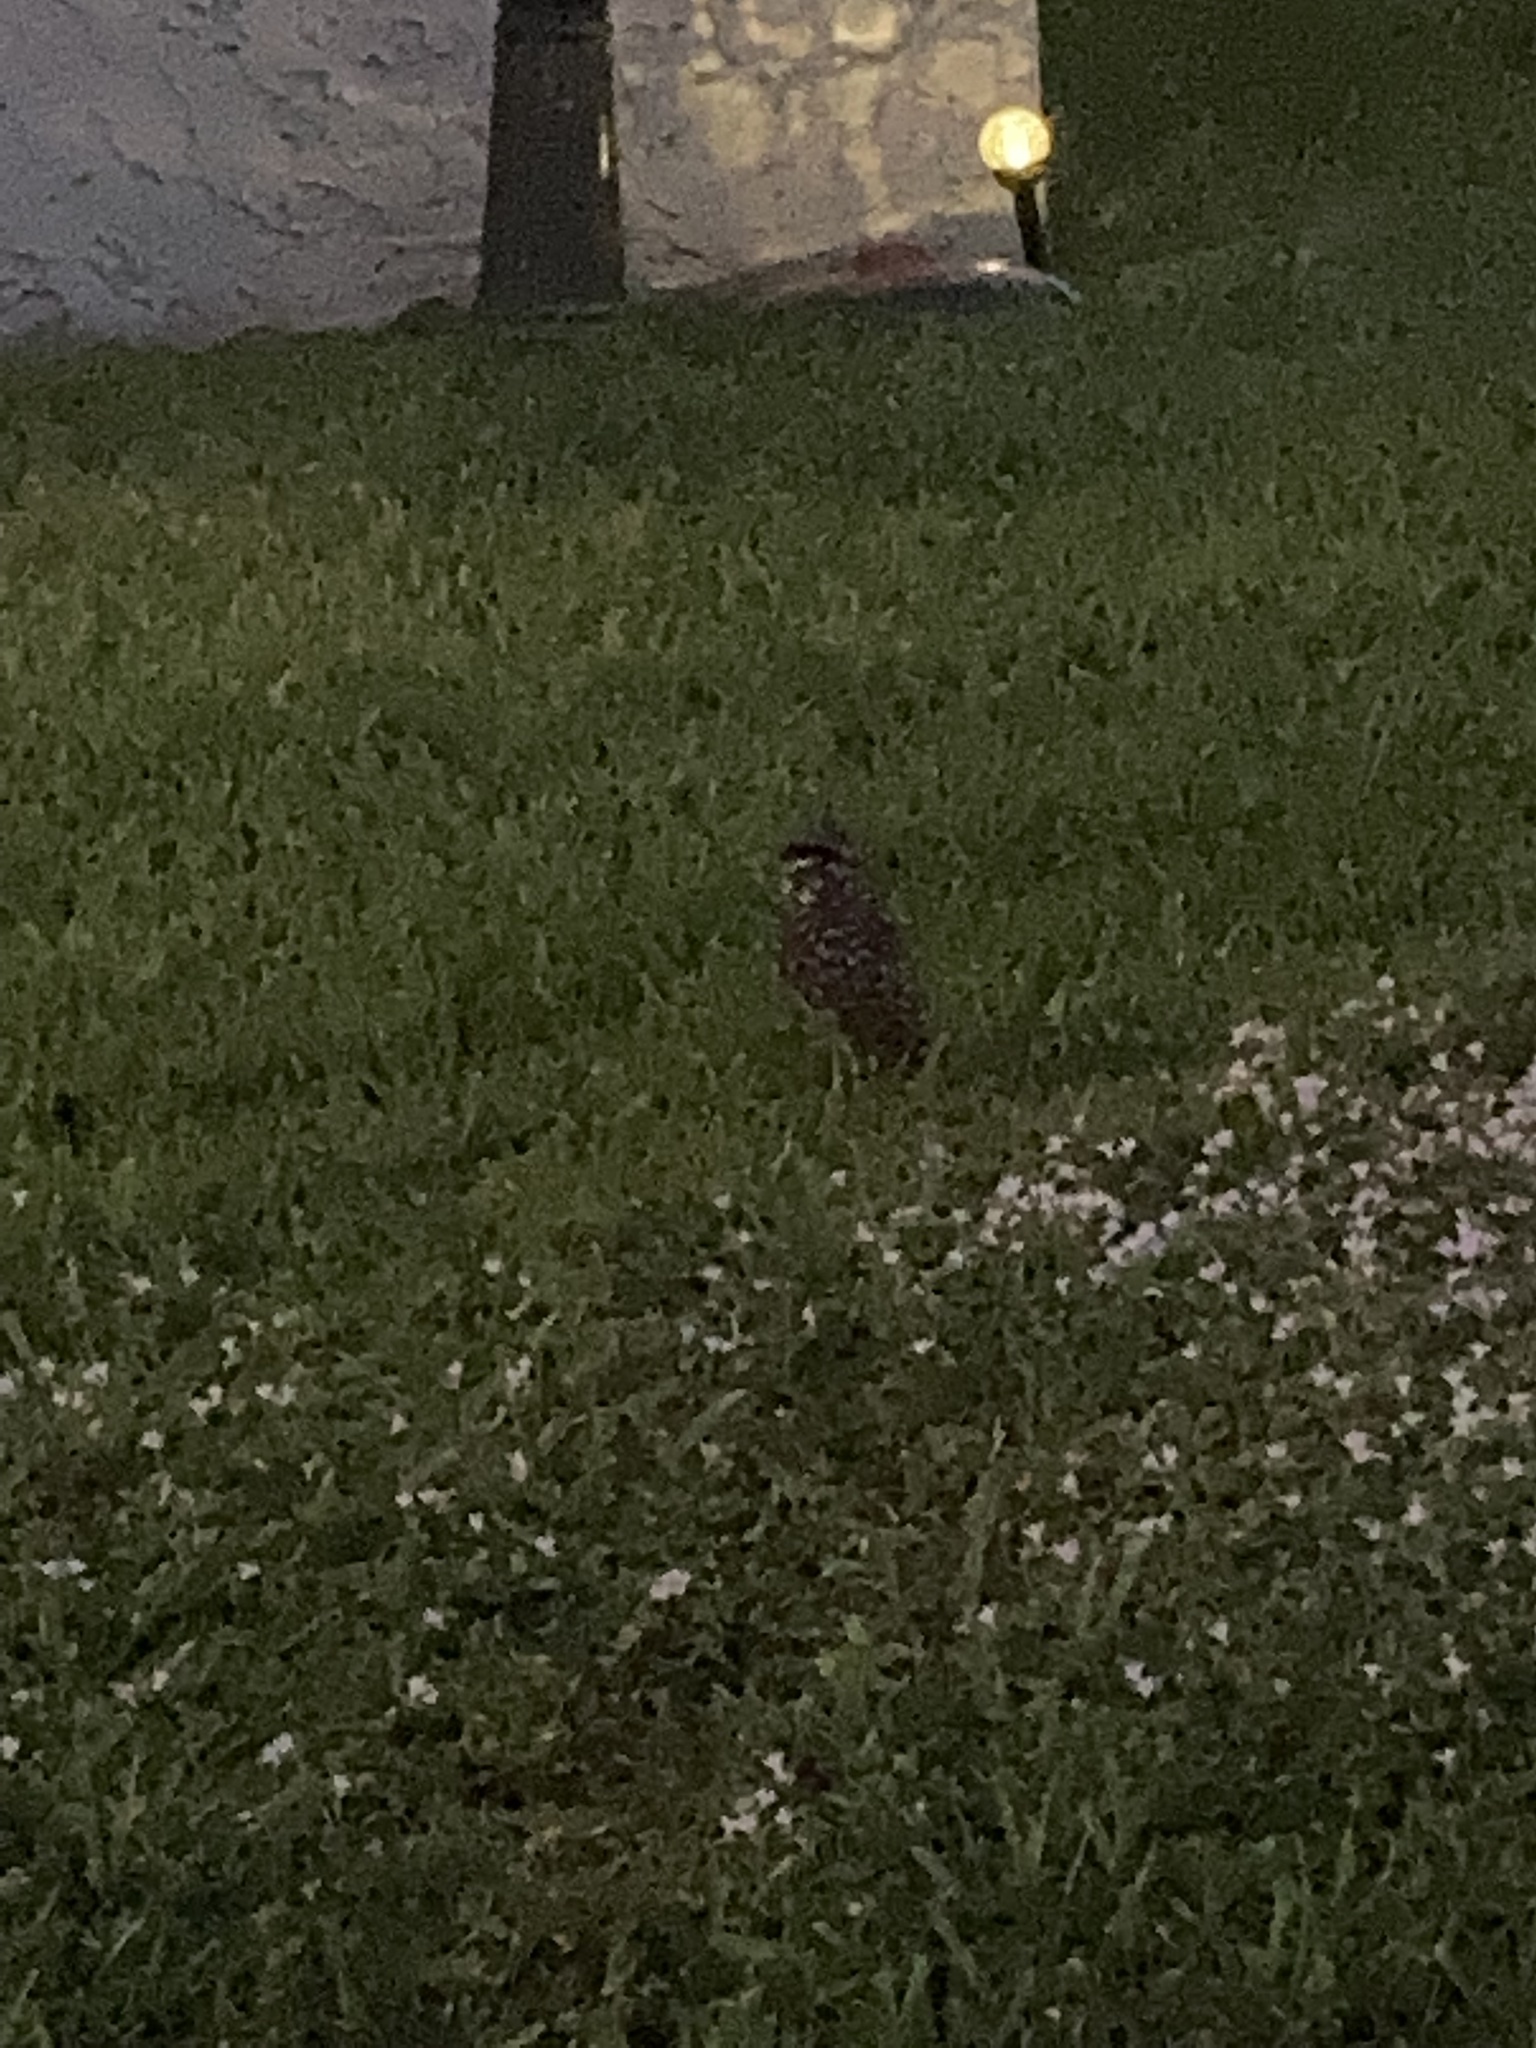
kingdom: Animalia
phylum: Chordata
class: Aves
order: Strigiformes
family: Strigidae
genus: Athene
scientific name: Athene cunicularia
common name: Burrowing owl
